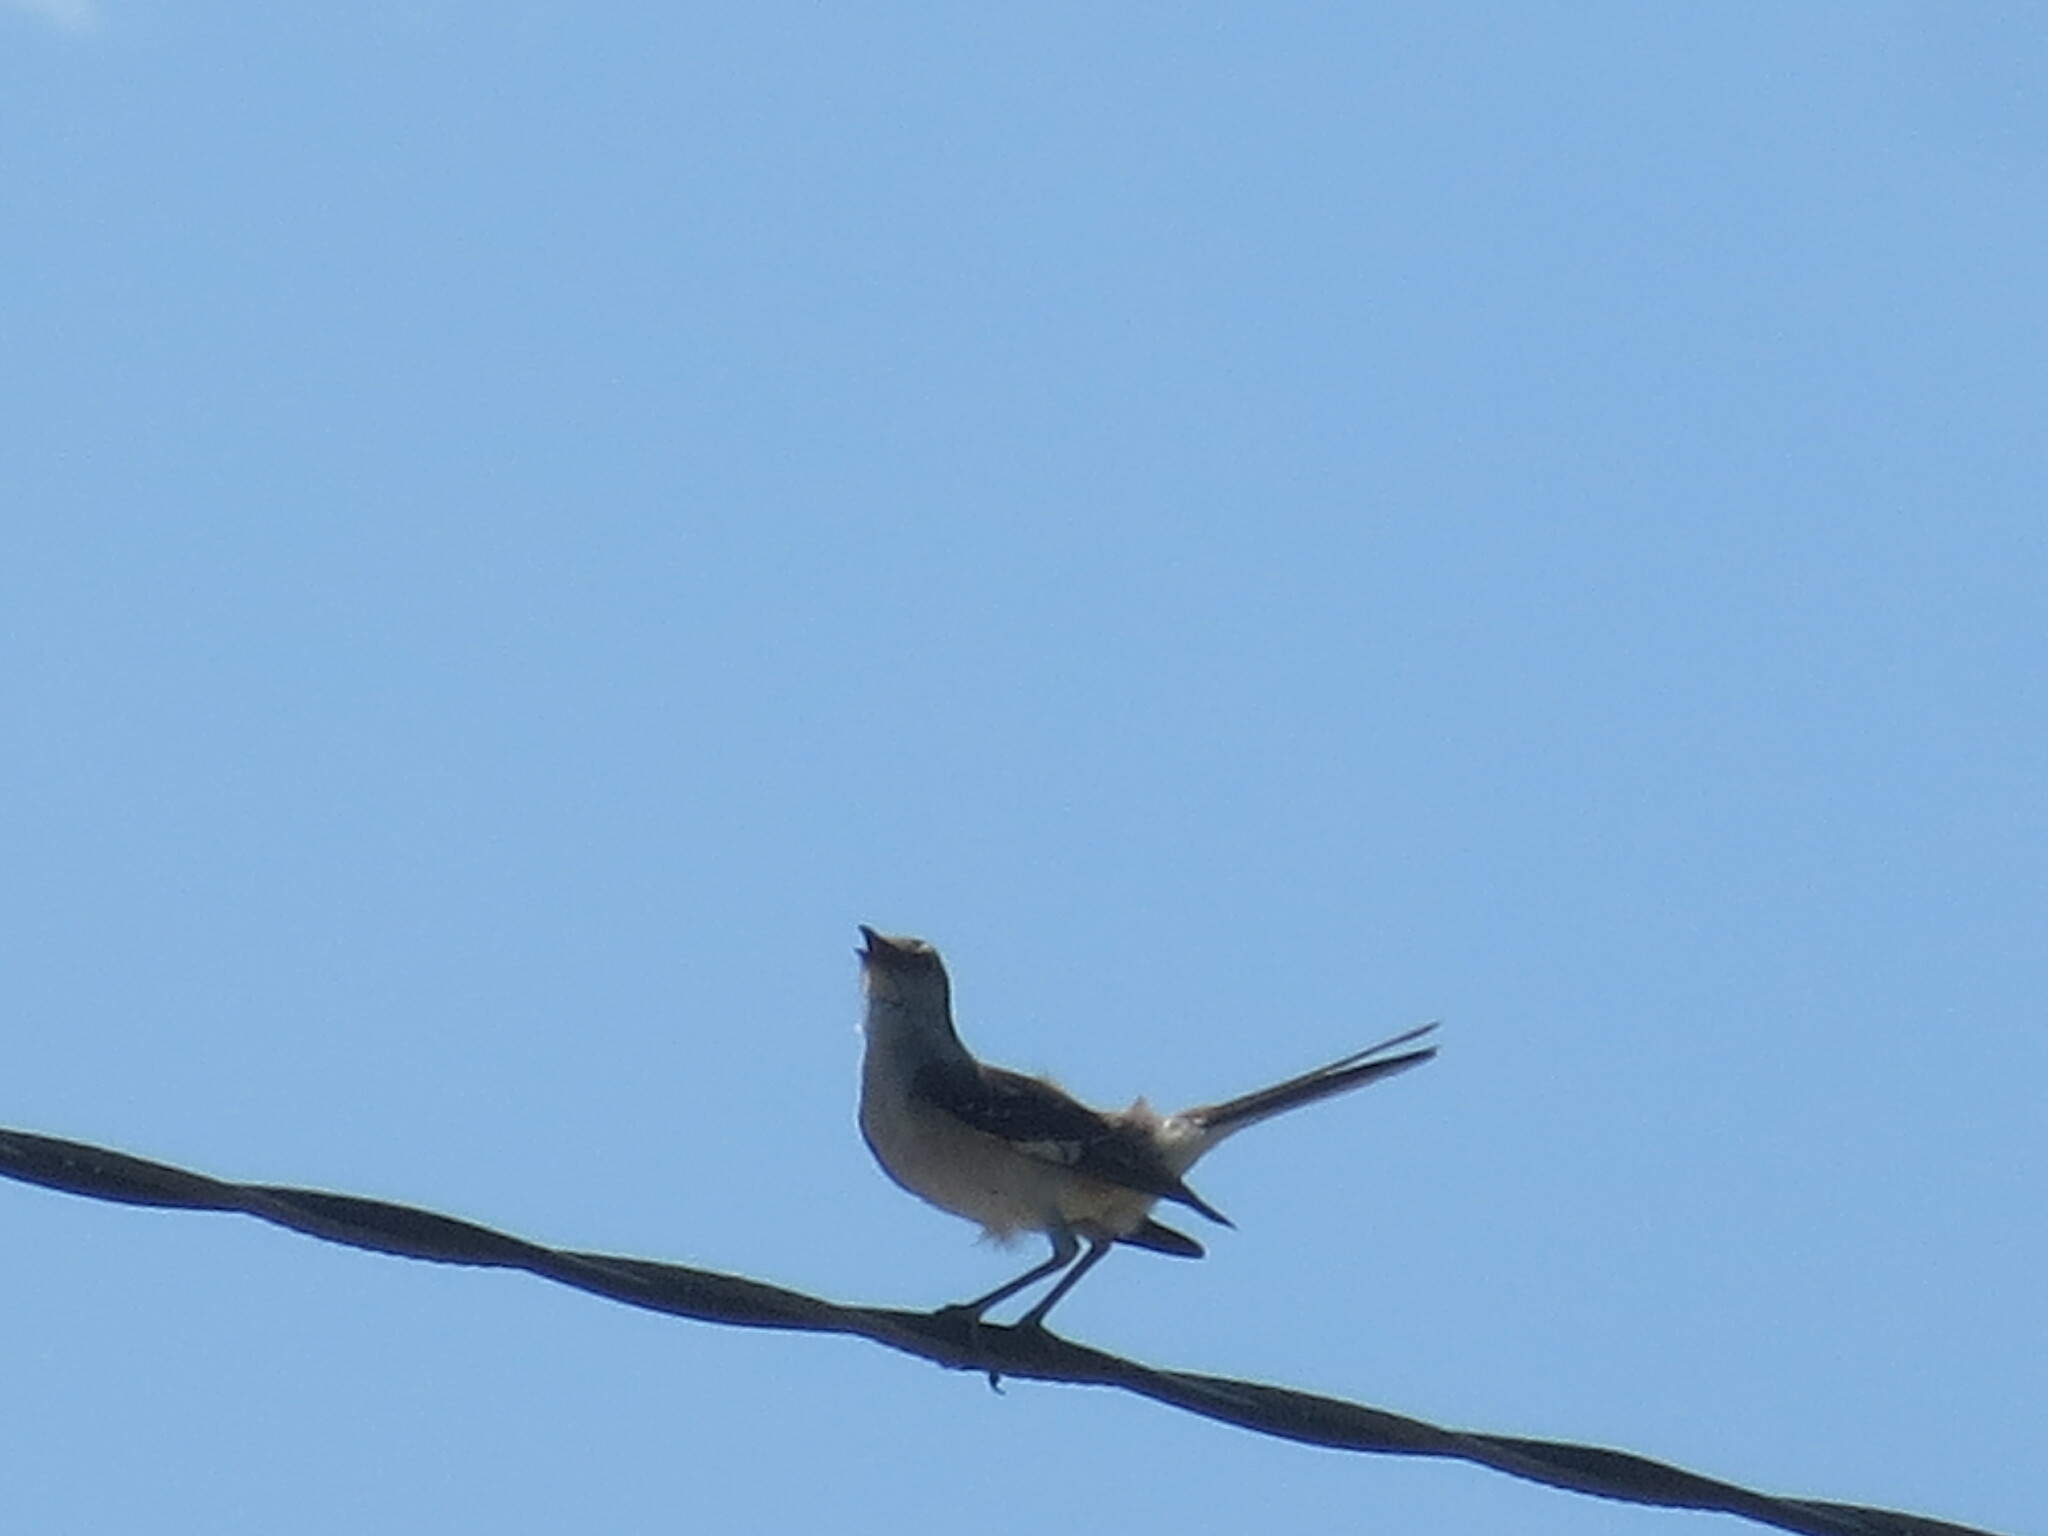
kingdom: Animalia
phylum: Chordata
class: Aves
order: Passeriformes
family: Mimidae
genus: Mimus
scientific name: Mimus polyglottos
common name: Northern mockingbird
